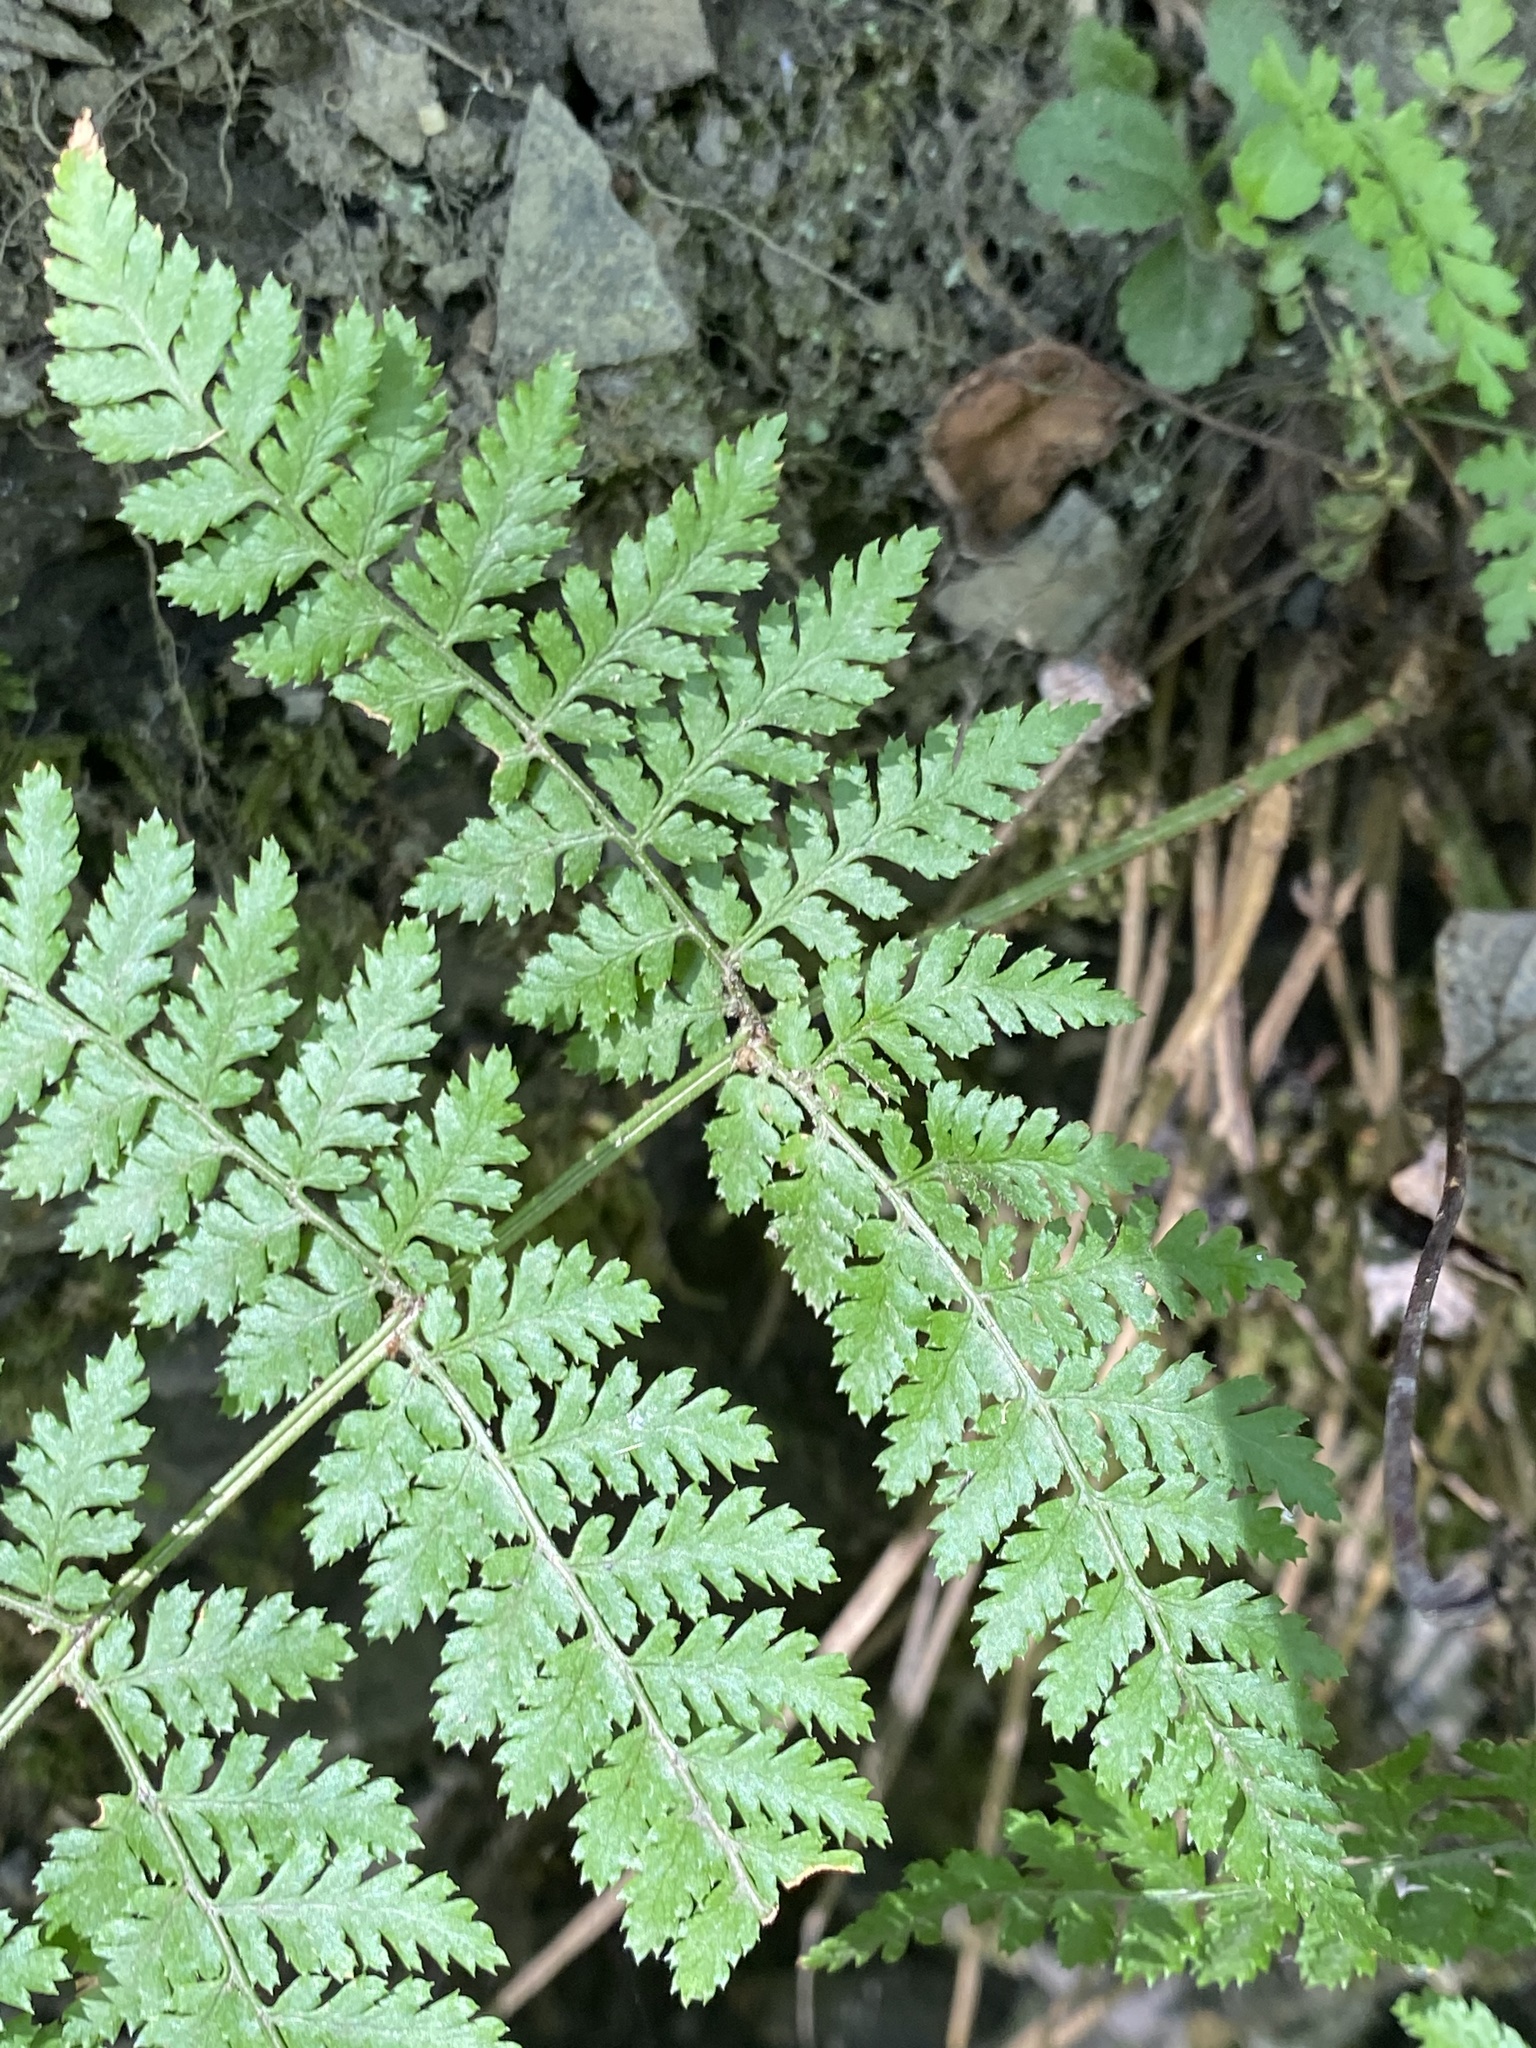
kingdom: Plantae
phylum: Tracheophyta
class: Polypodiopsida
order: Polypodiales
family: Dryopteridaceae
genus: Dryopteris
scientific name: Dryopteris intermedia
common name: Evergreen wood fern
